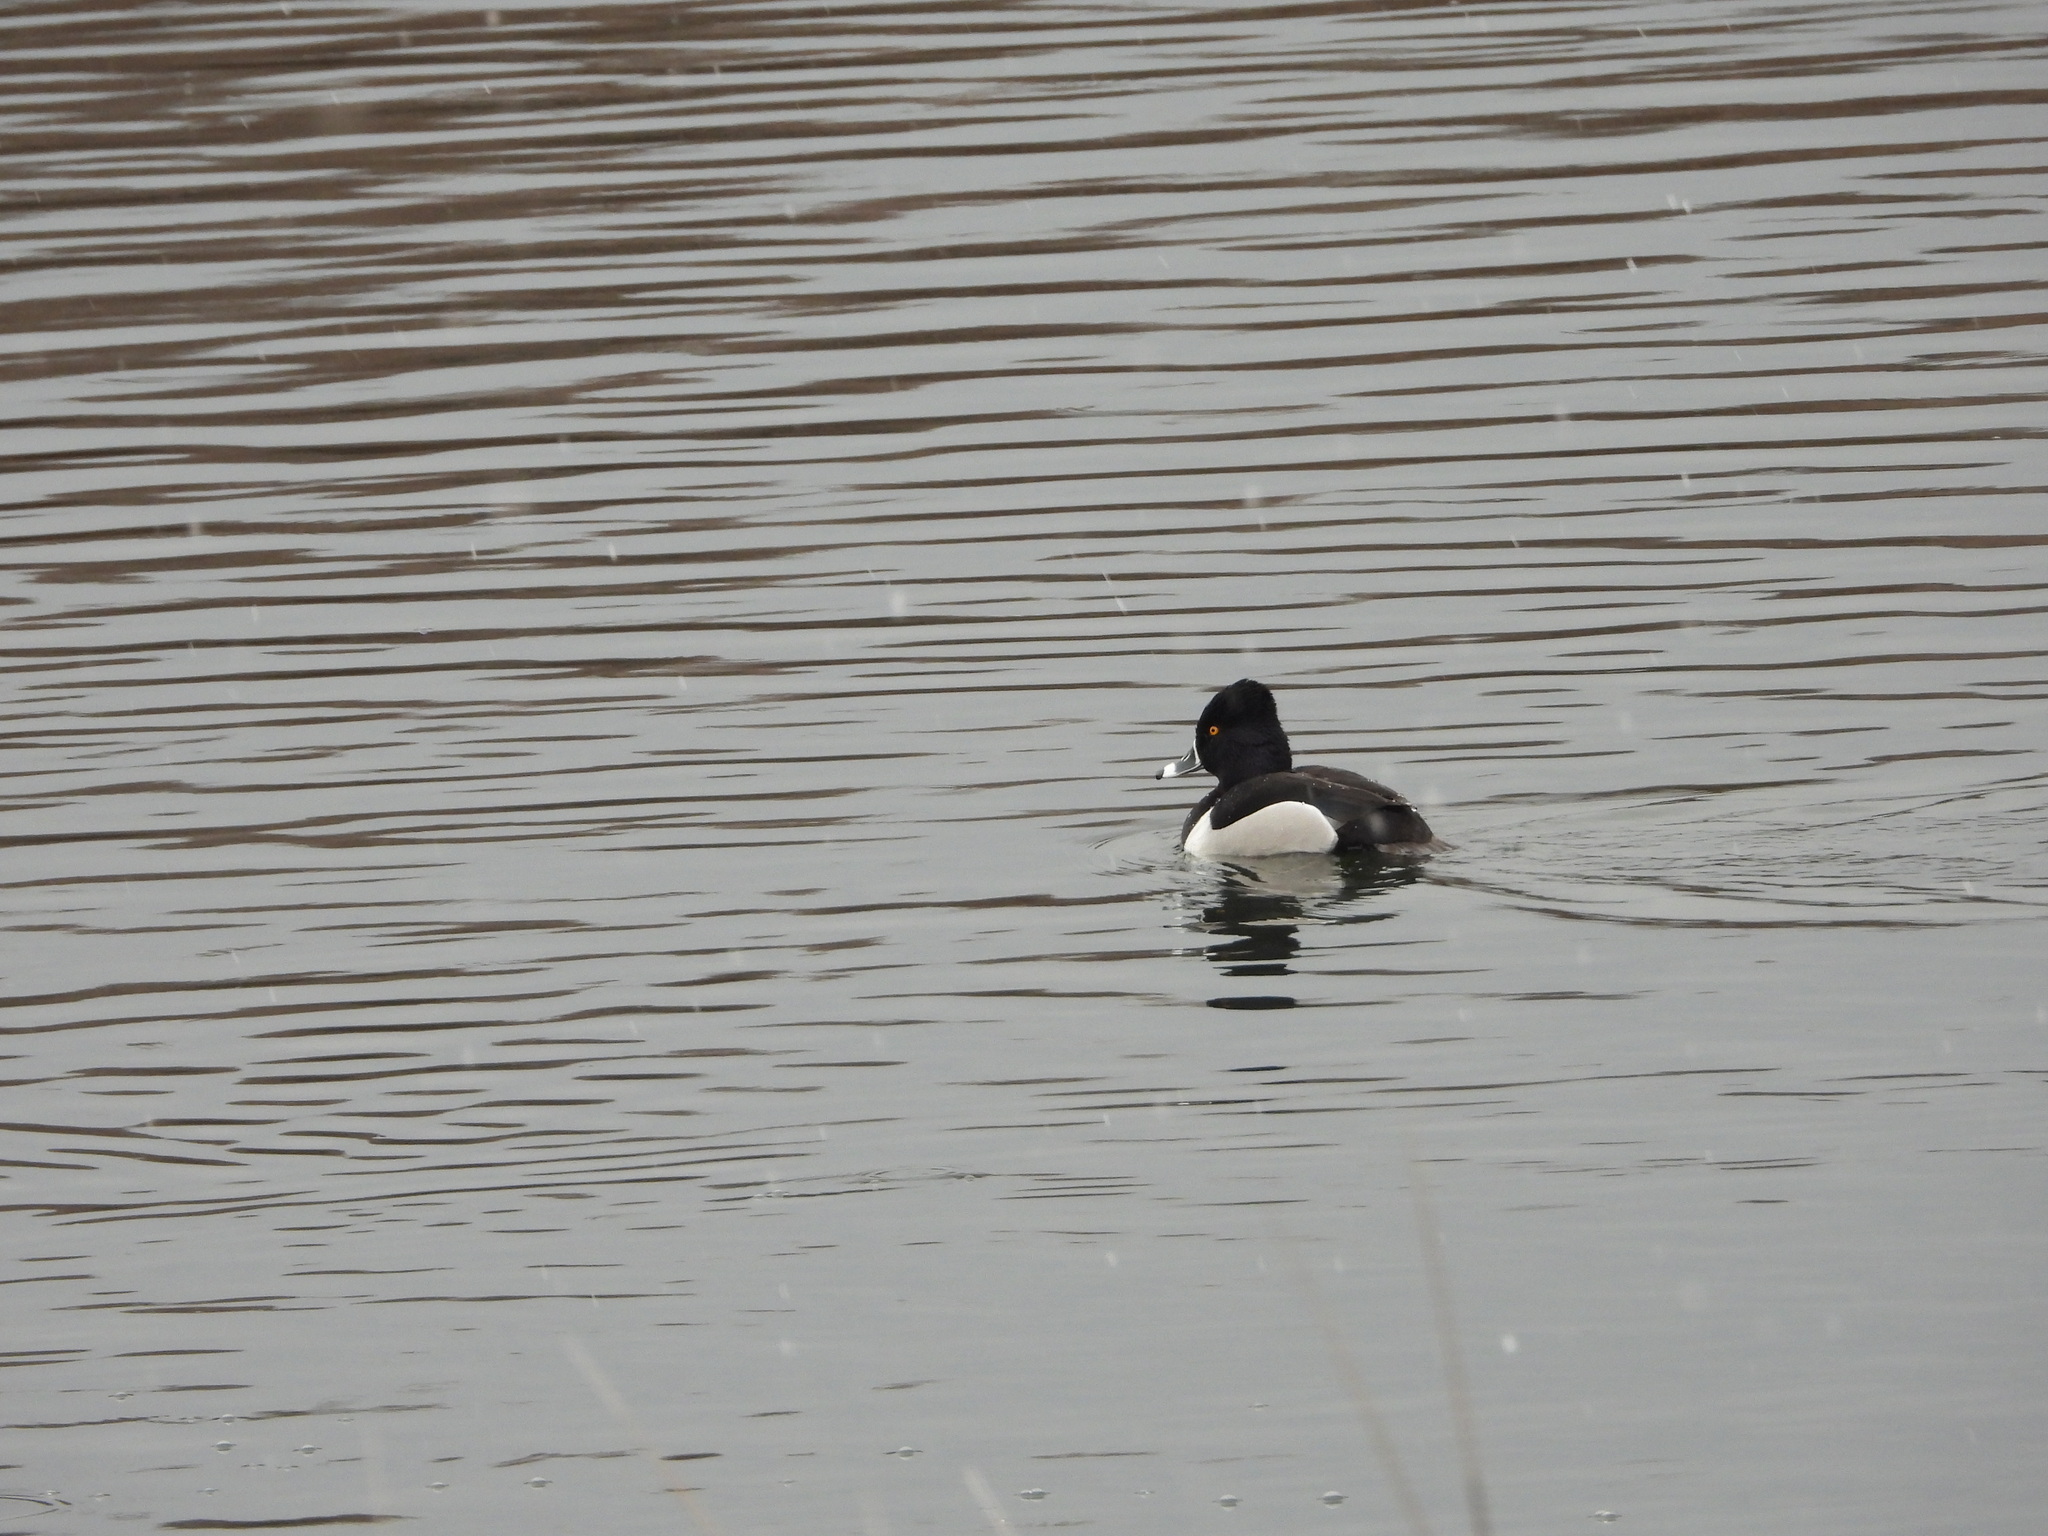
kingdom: Animalia
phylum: Chordata
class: Aves
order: Anseriformes
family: Anatidae
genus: Aythya
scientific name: Aythya collaris
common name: Ring-necked duck
